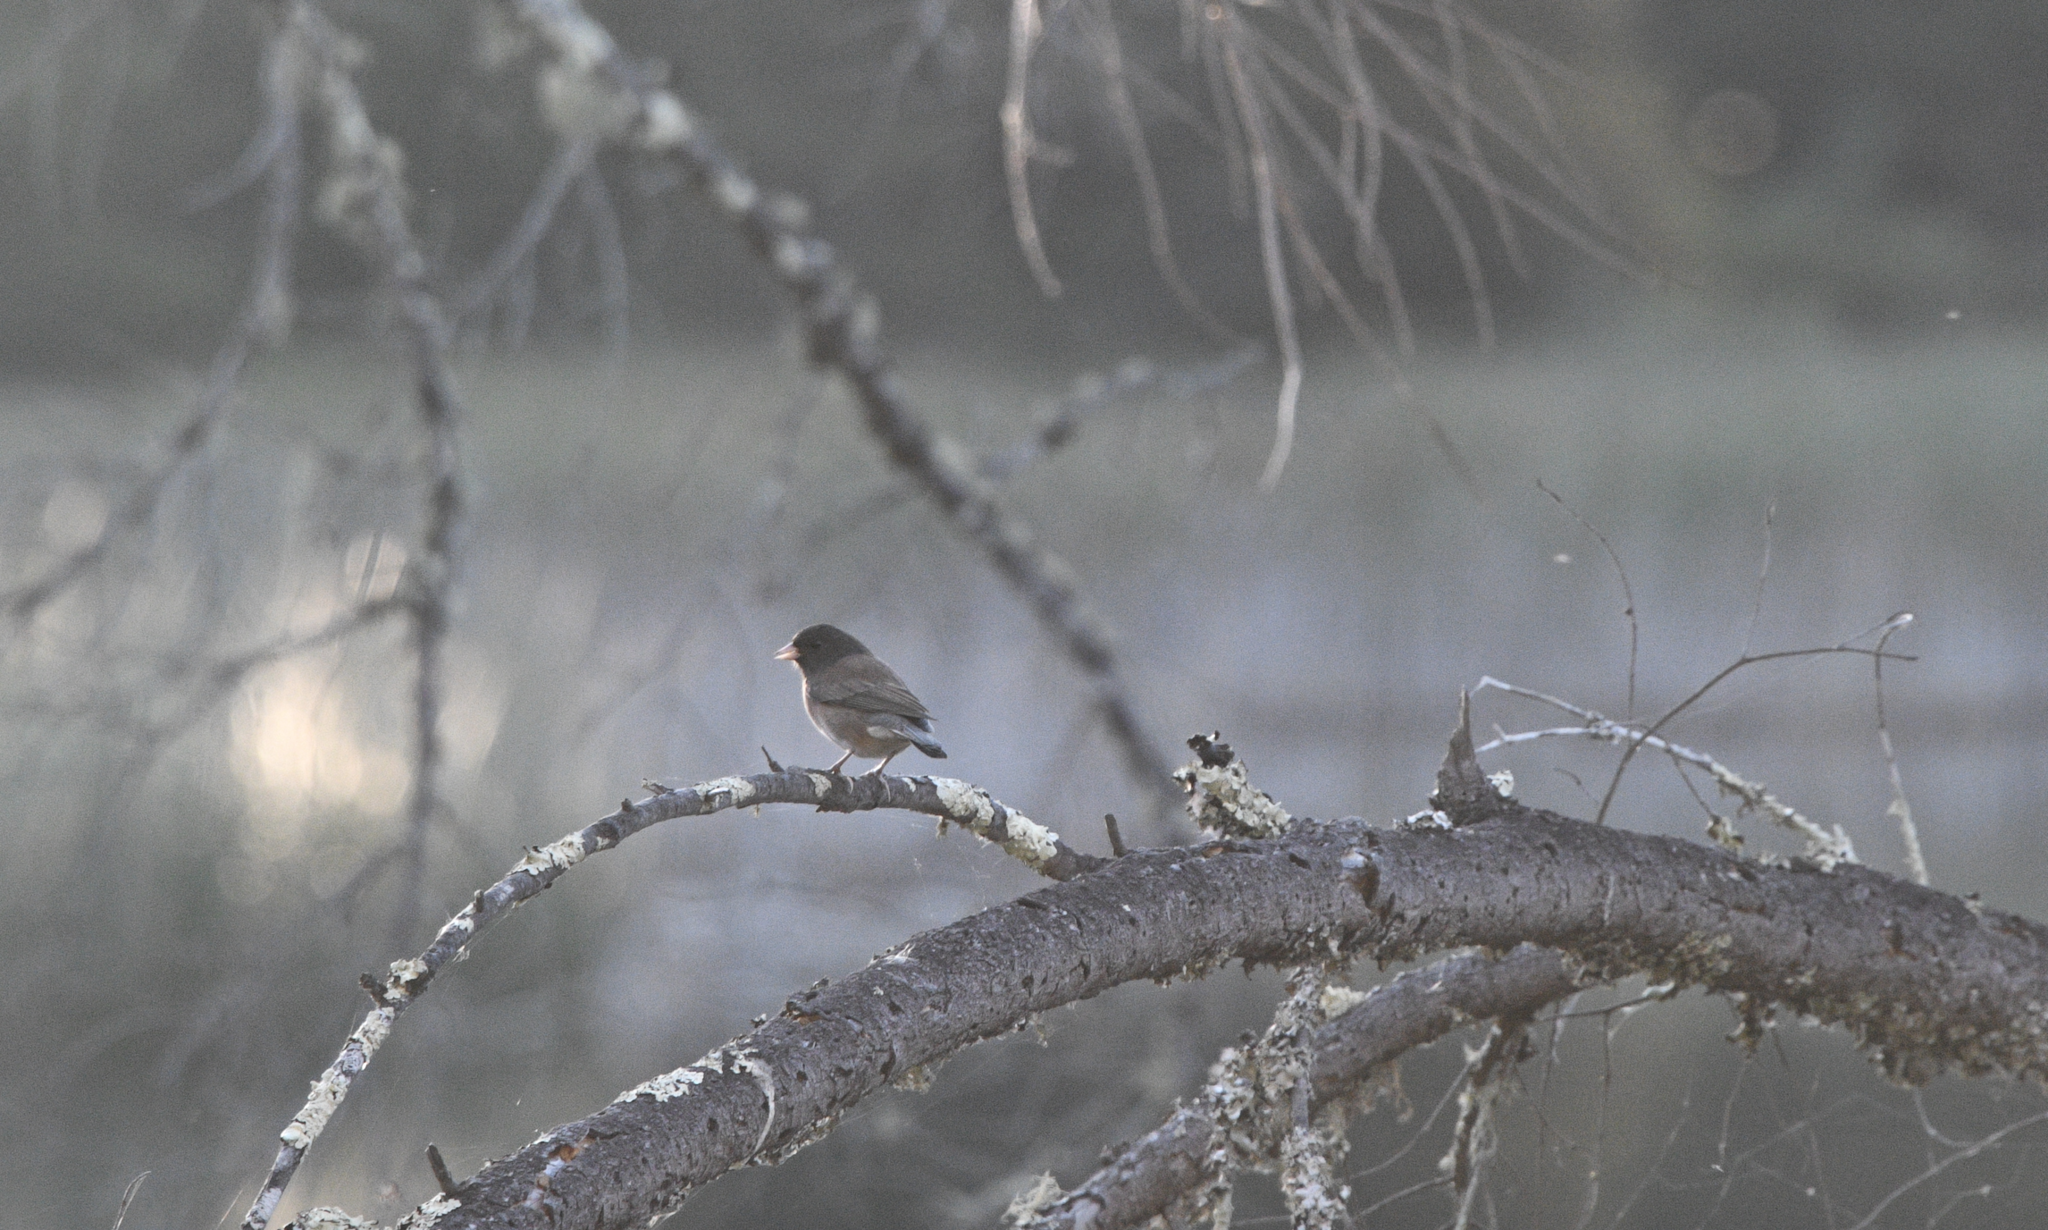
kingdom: Animalia
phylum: Chordata
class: Aves
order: Passeriformes
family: Passerellidae
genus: Junco
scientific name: Junco hyemalis
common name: Dark-eyed junco
